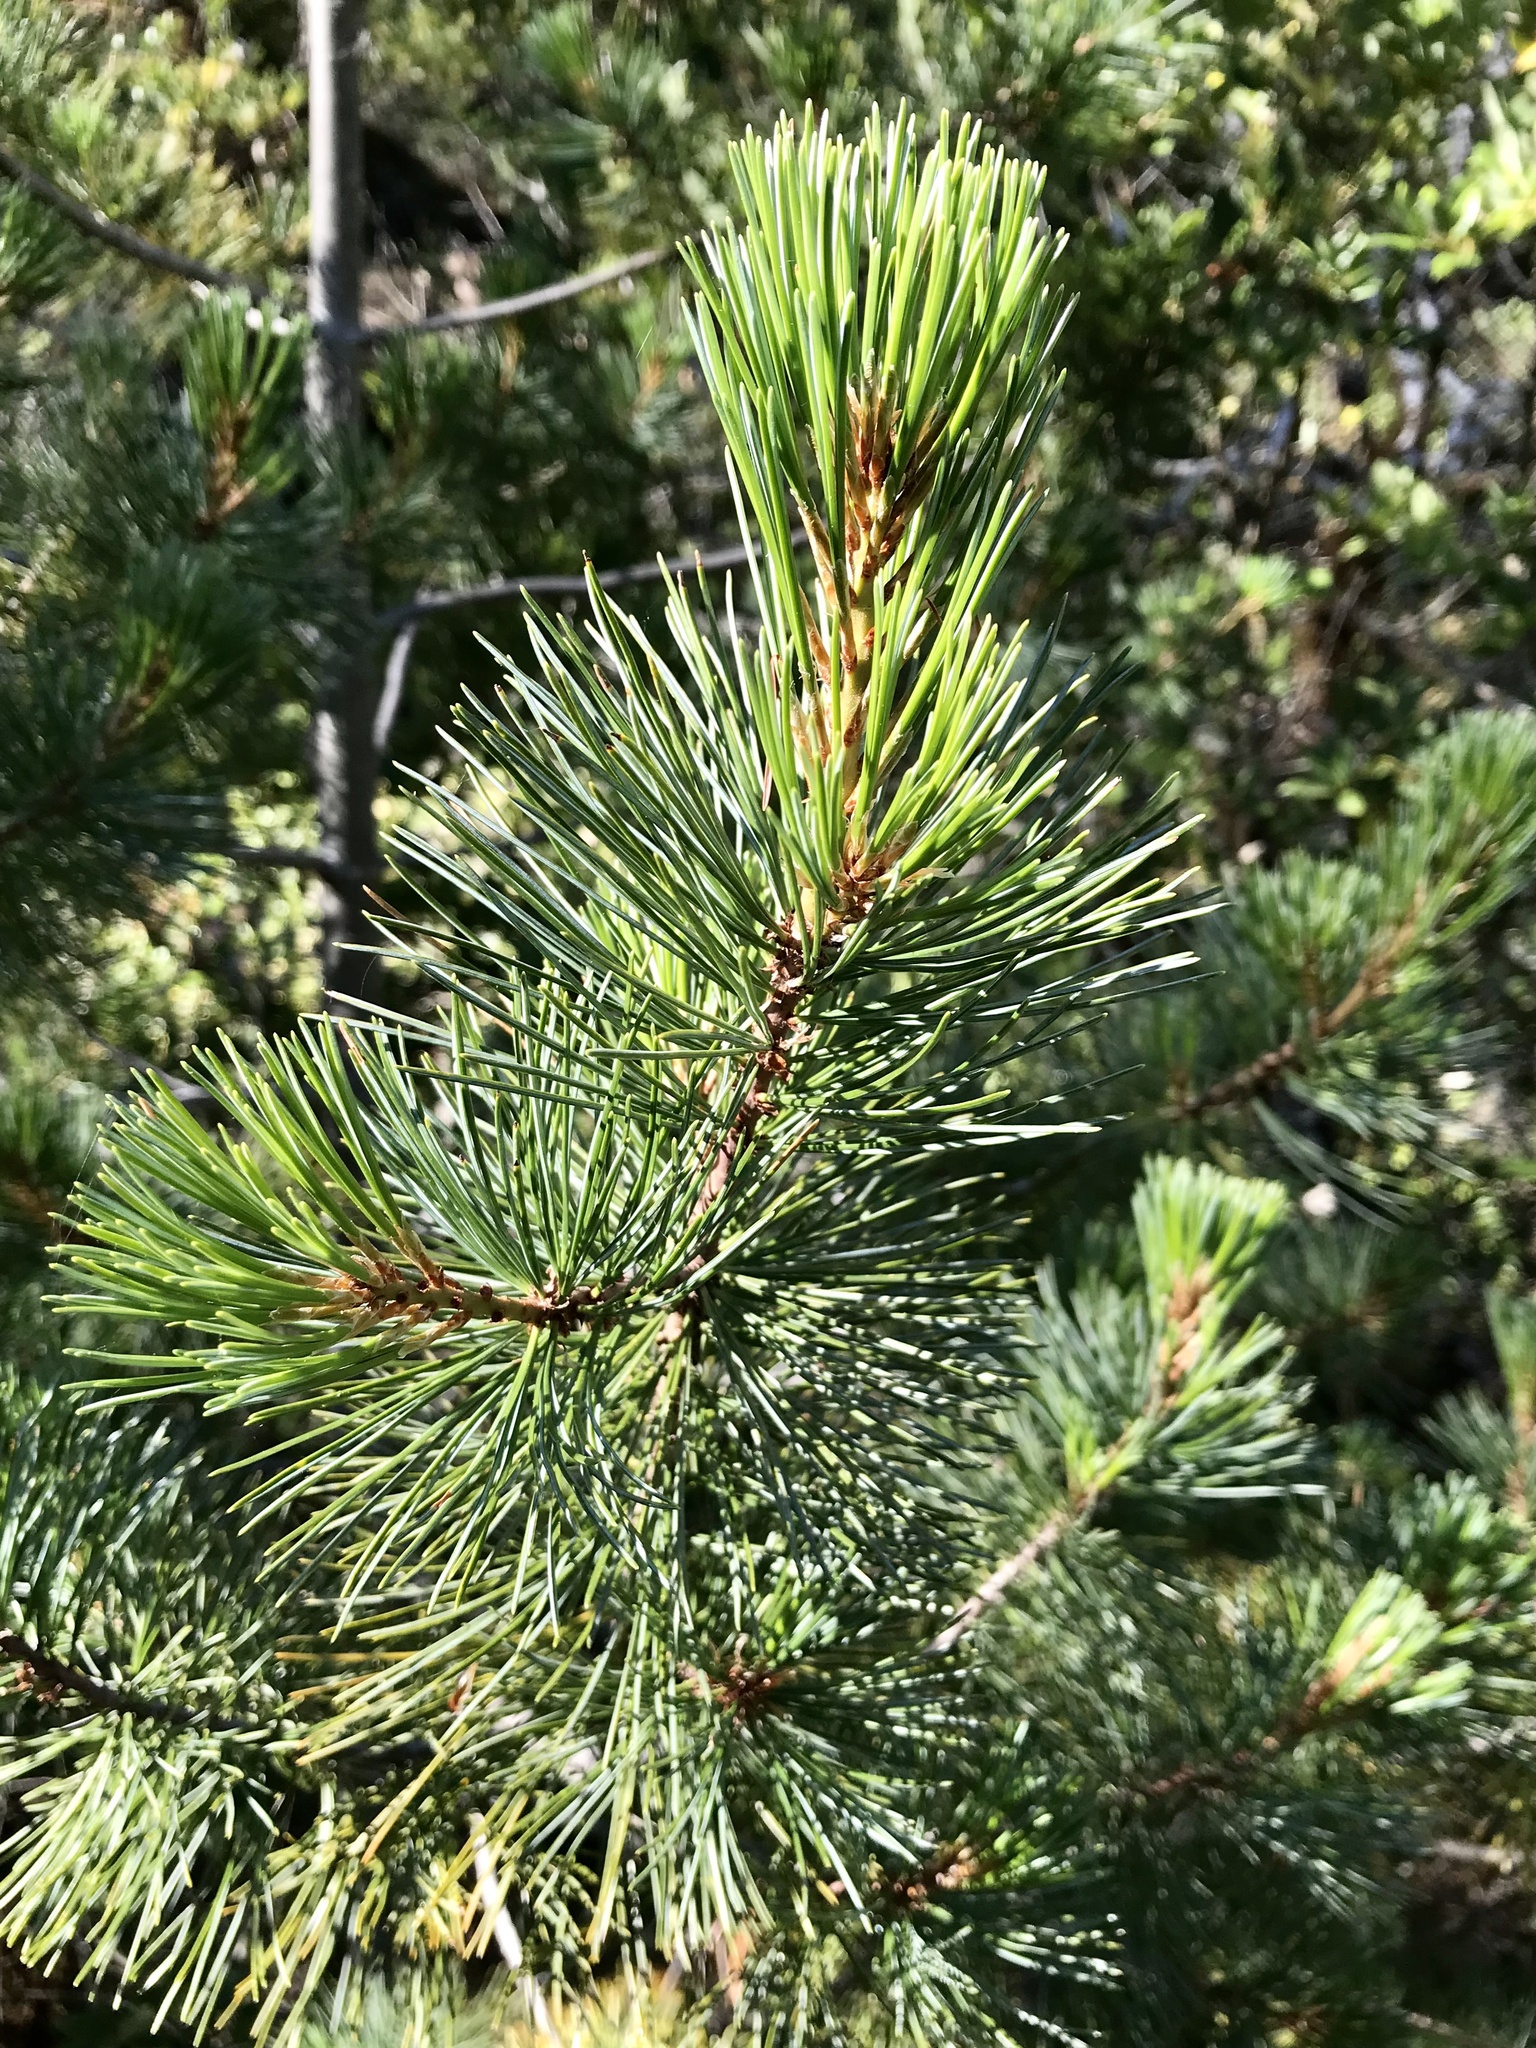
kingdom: Plantae
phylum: Tracheophyta
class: Pinopsida
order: Pinales
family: Pinaceae
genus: Pinus
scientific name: Pinus monticola
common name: Western white pine
